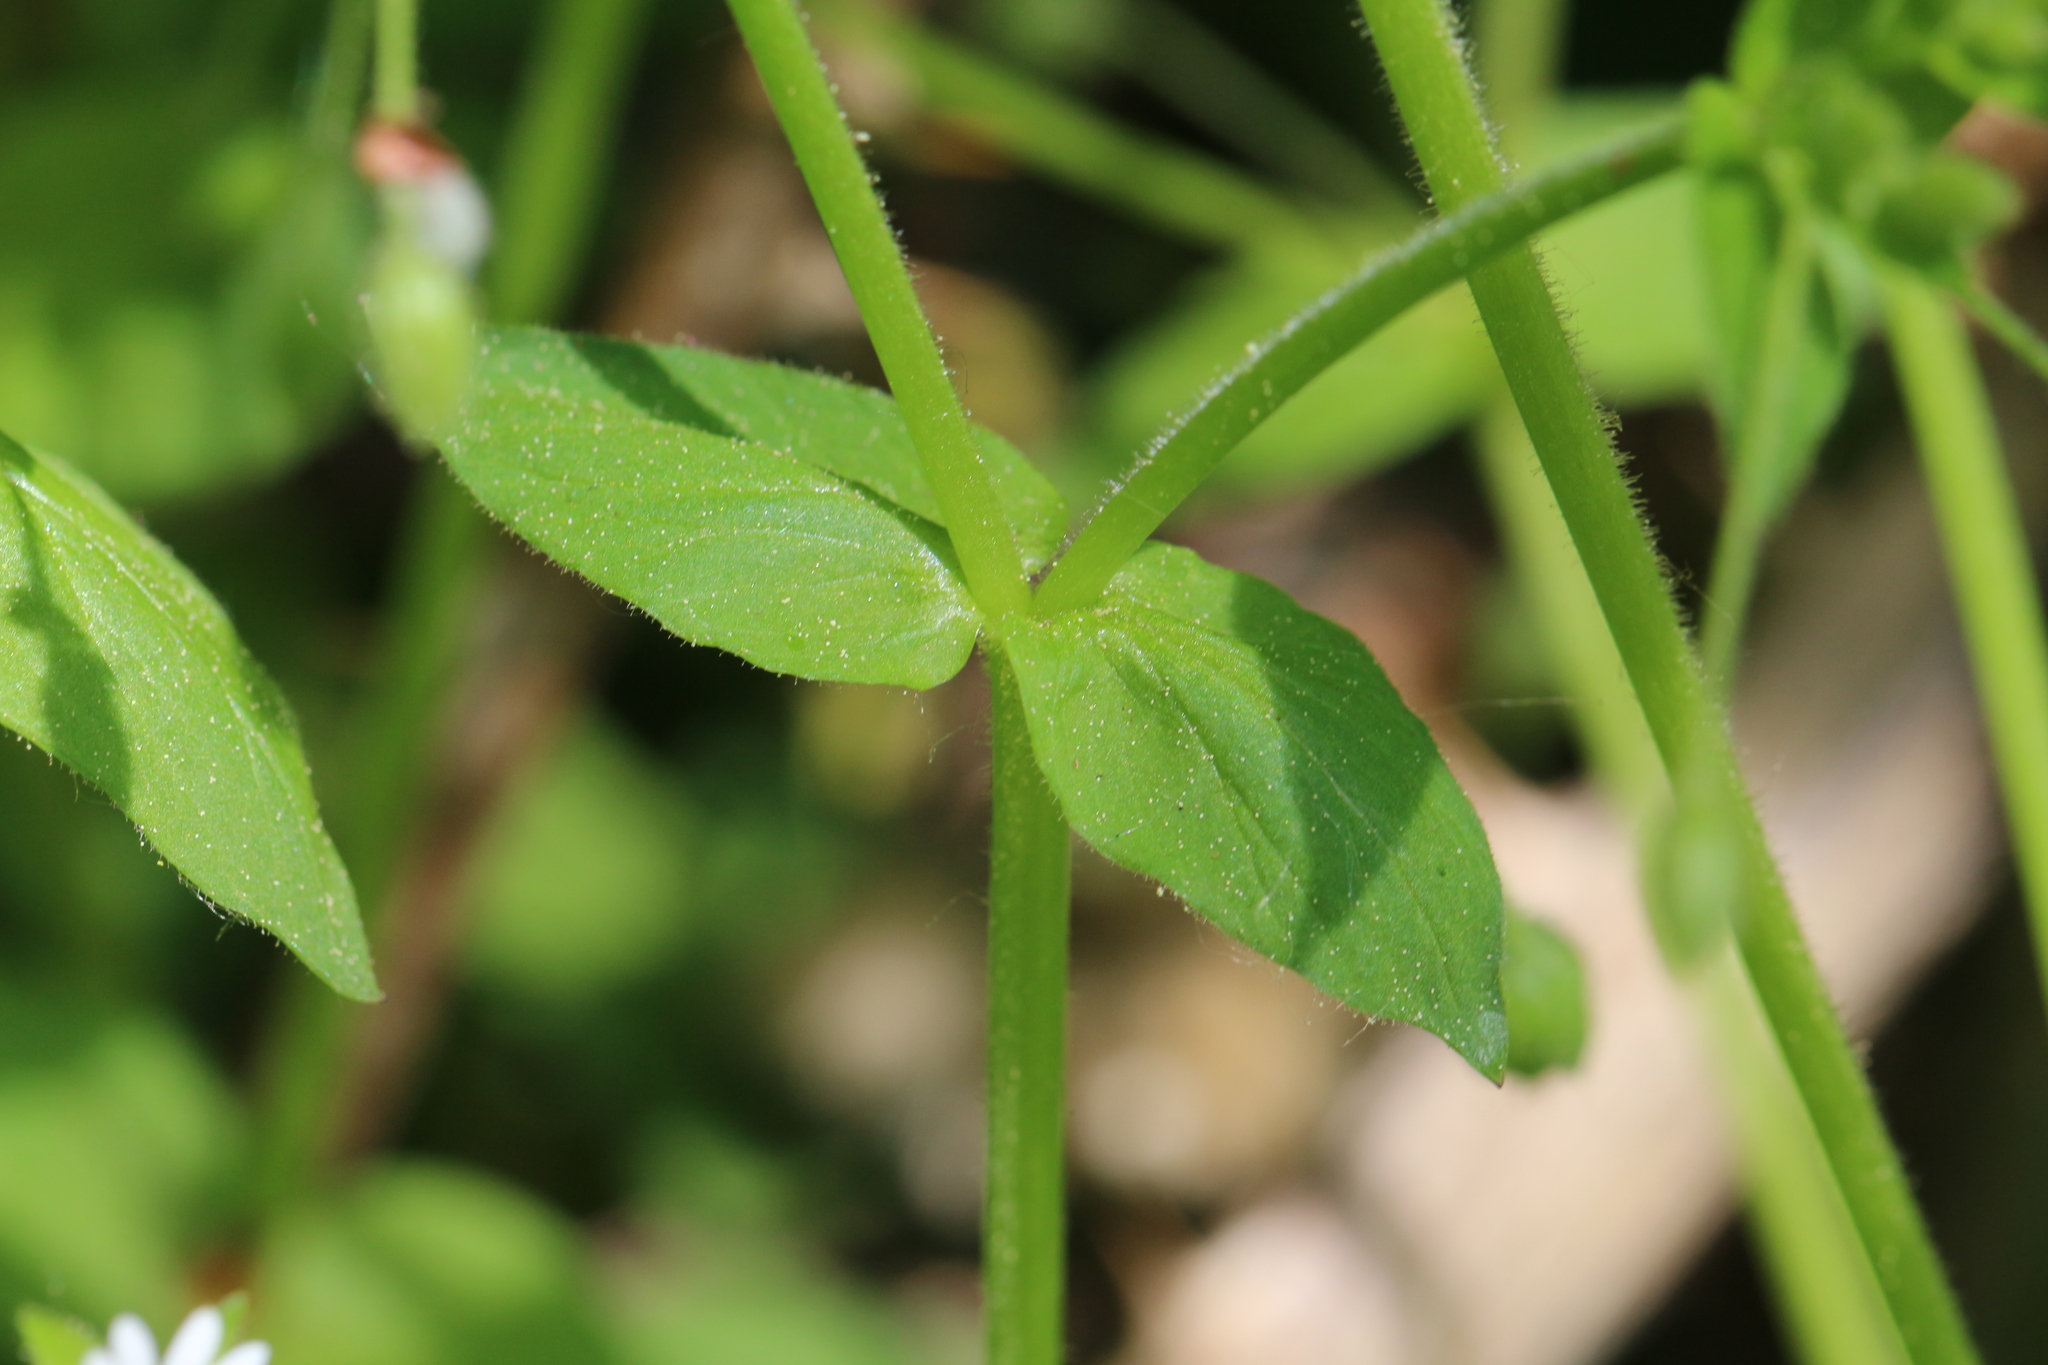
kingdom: Plantae
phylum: Tracheophyta
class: Magnoliopsida
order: Caryophyllales
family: Caryophyllaceae
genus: Stellaria
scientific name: Stellaria media
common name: Common chickweed
